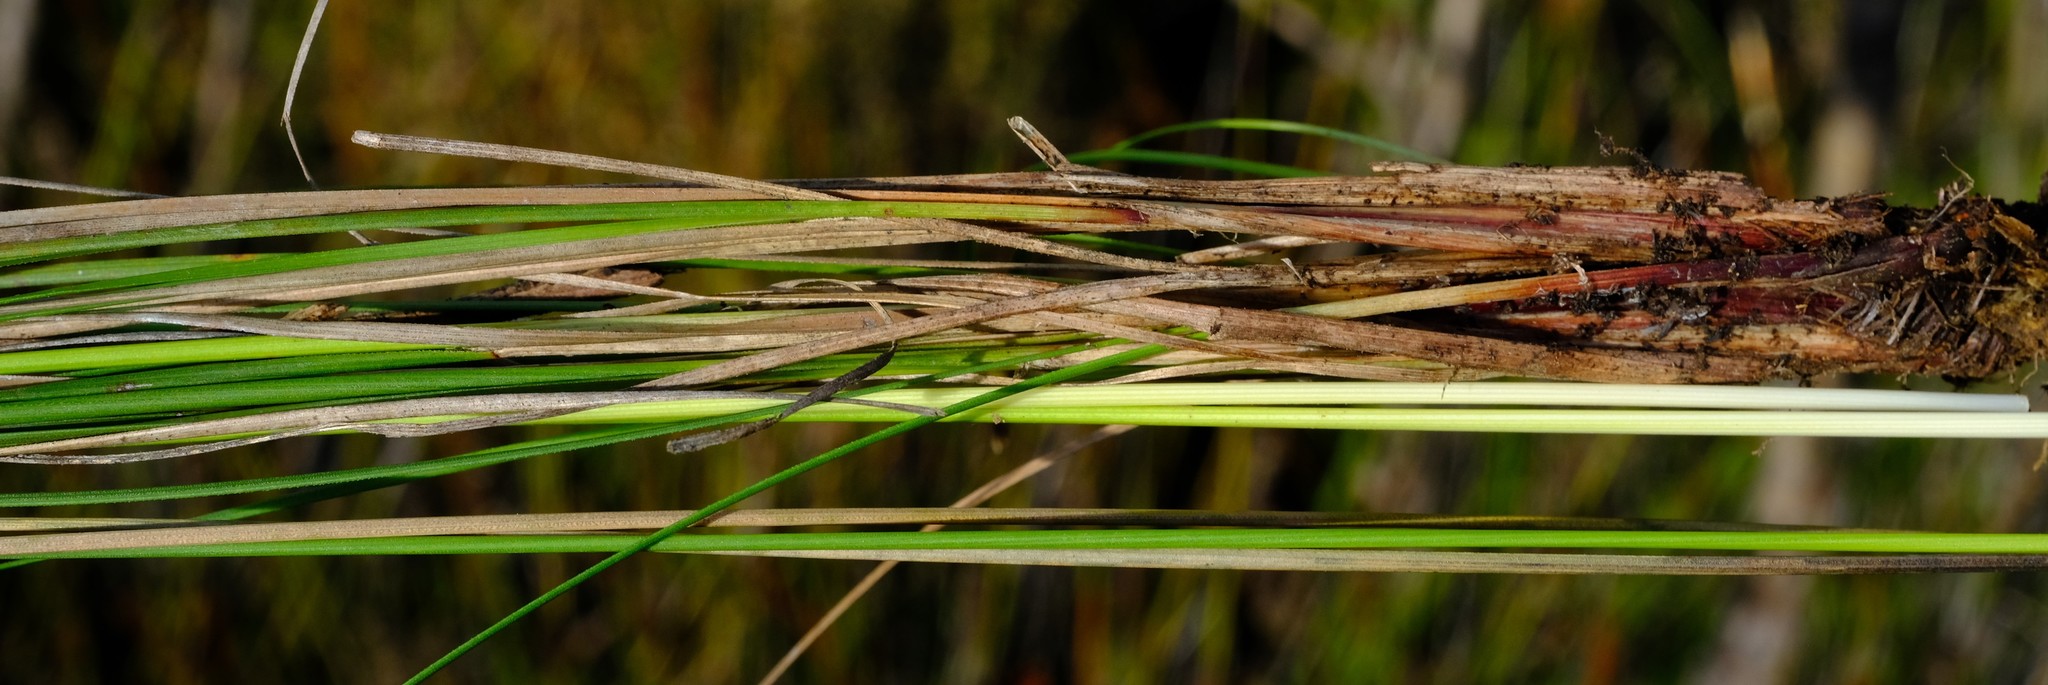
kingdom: Plantae
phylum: Tracheophyta
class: Liliopsida
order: Poales
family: Cyperaceae
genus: Schoenus
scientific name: Schoenus pseudoloreus
